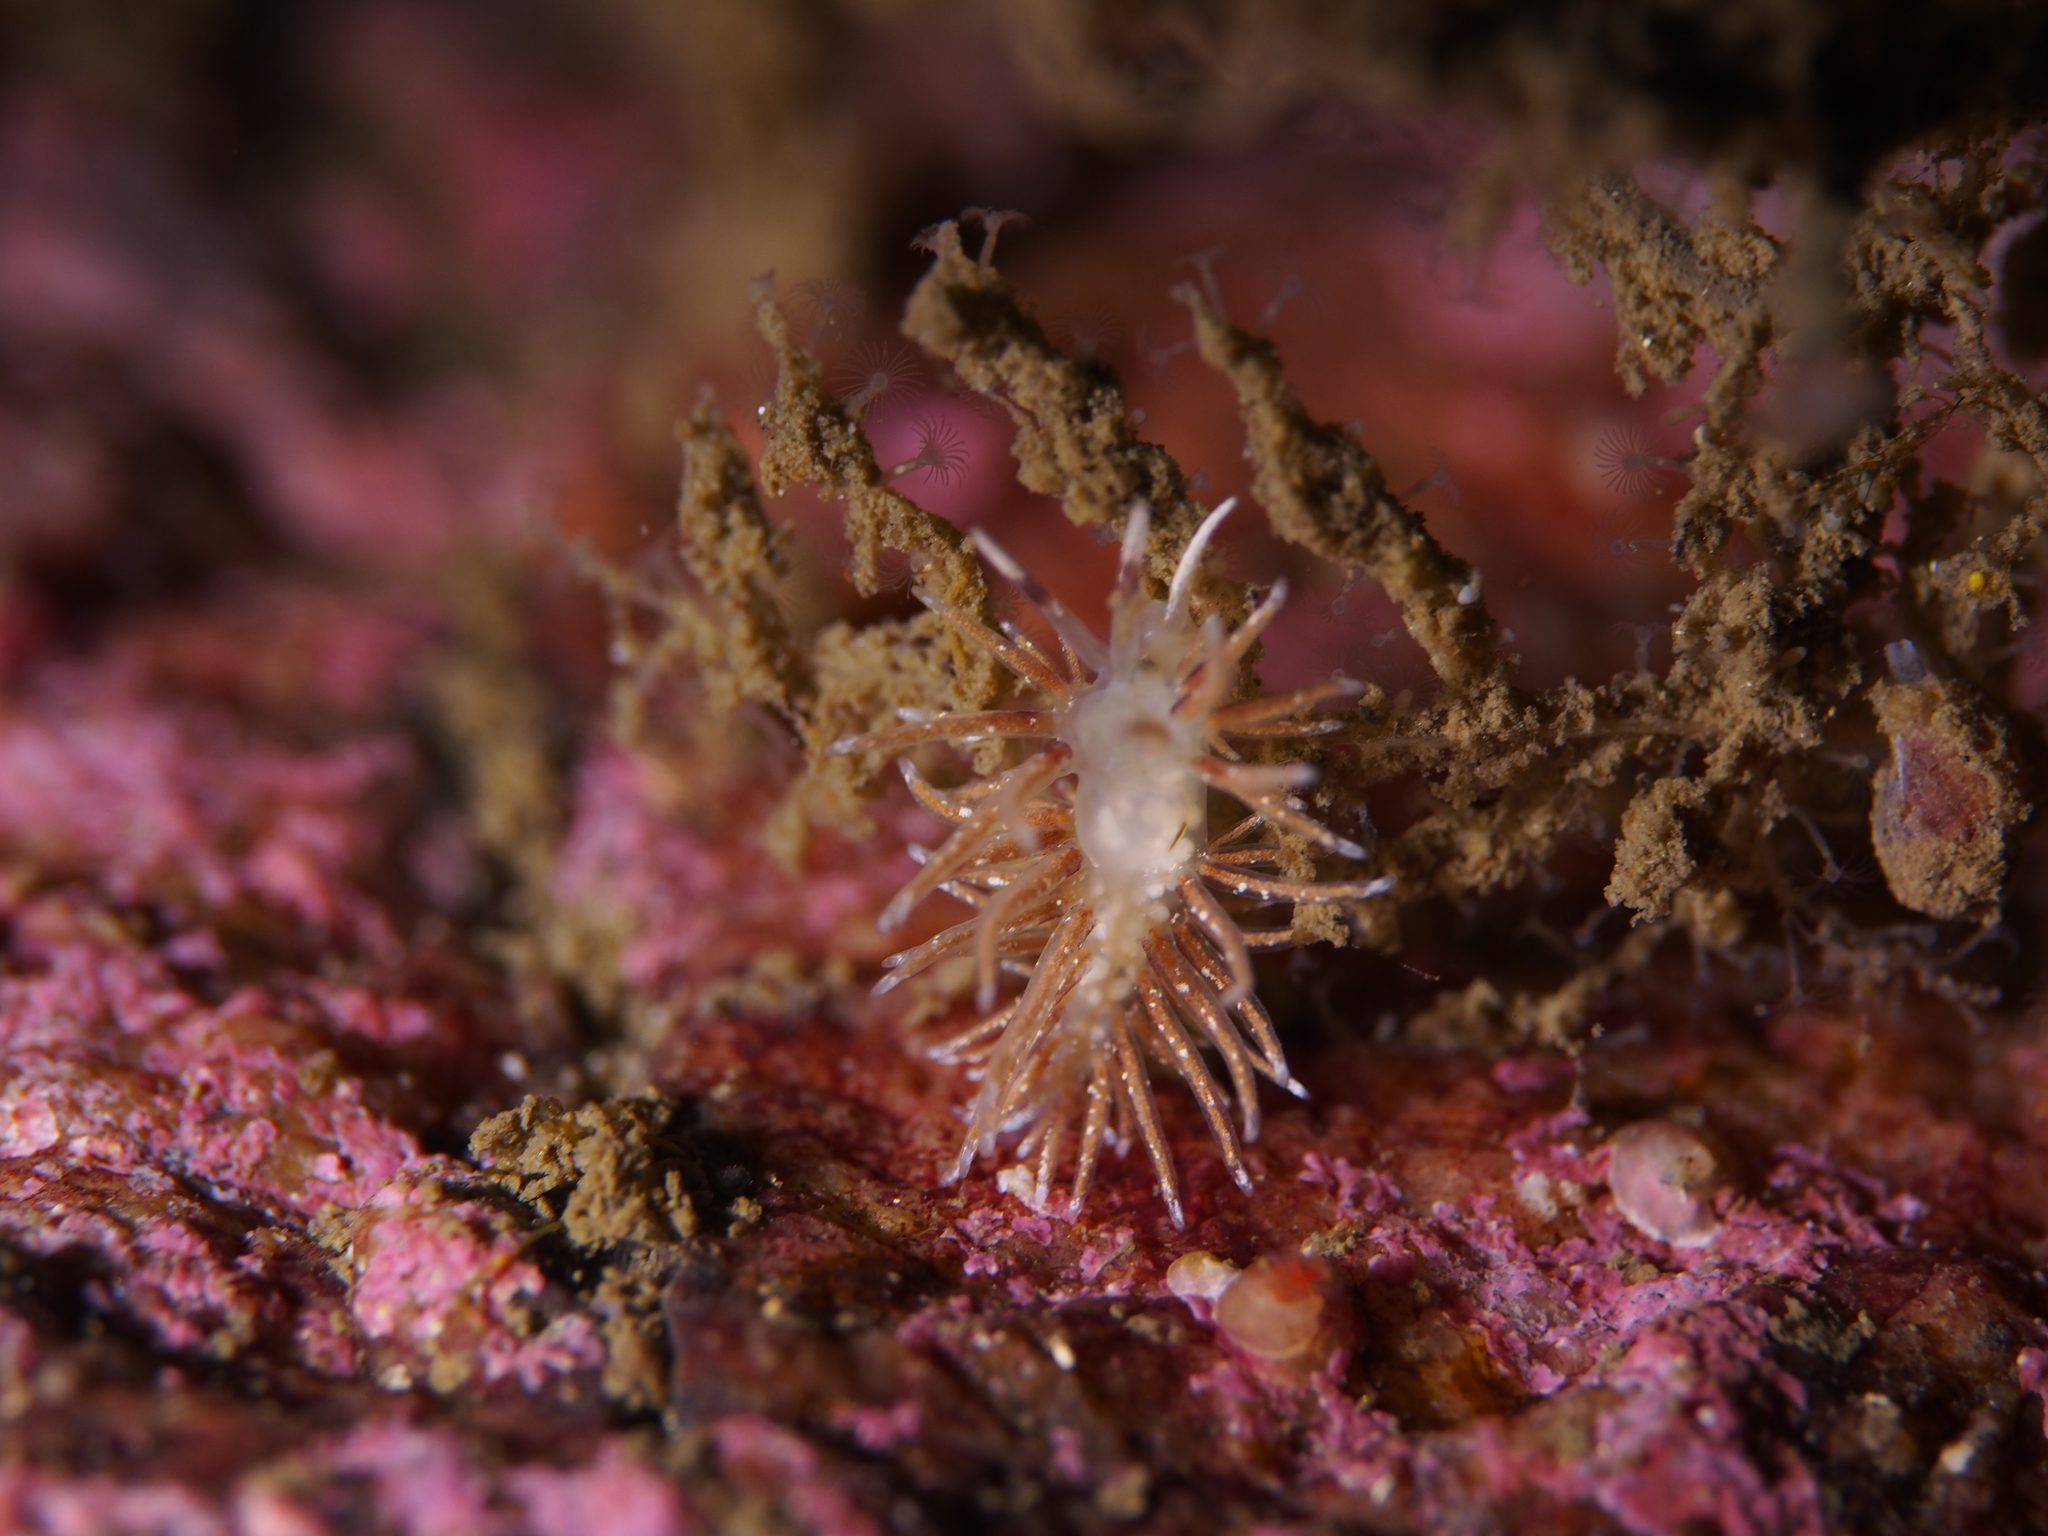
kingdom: Animalia
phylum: Mollusca
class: Gastropoda
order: Nudibranchia
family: Trinchesiidae
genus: Rubramoena
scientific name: Rubramoena rubescens
